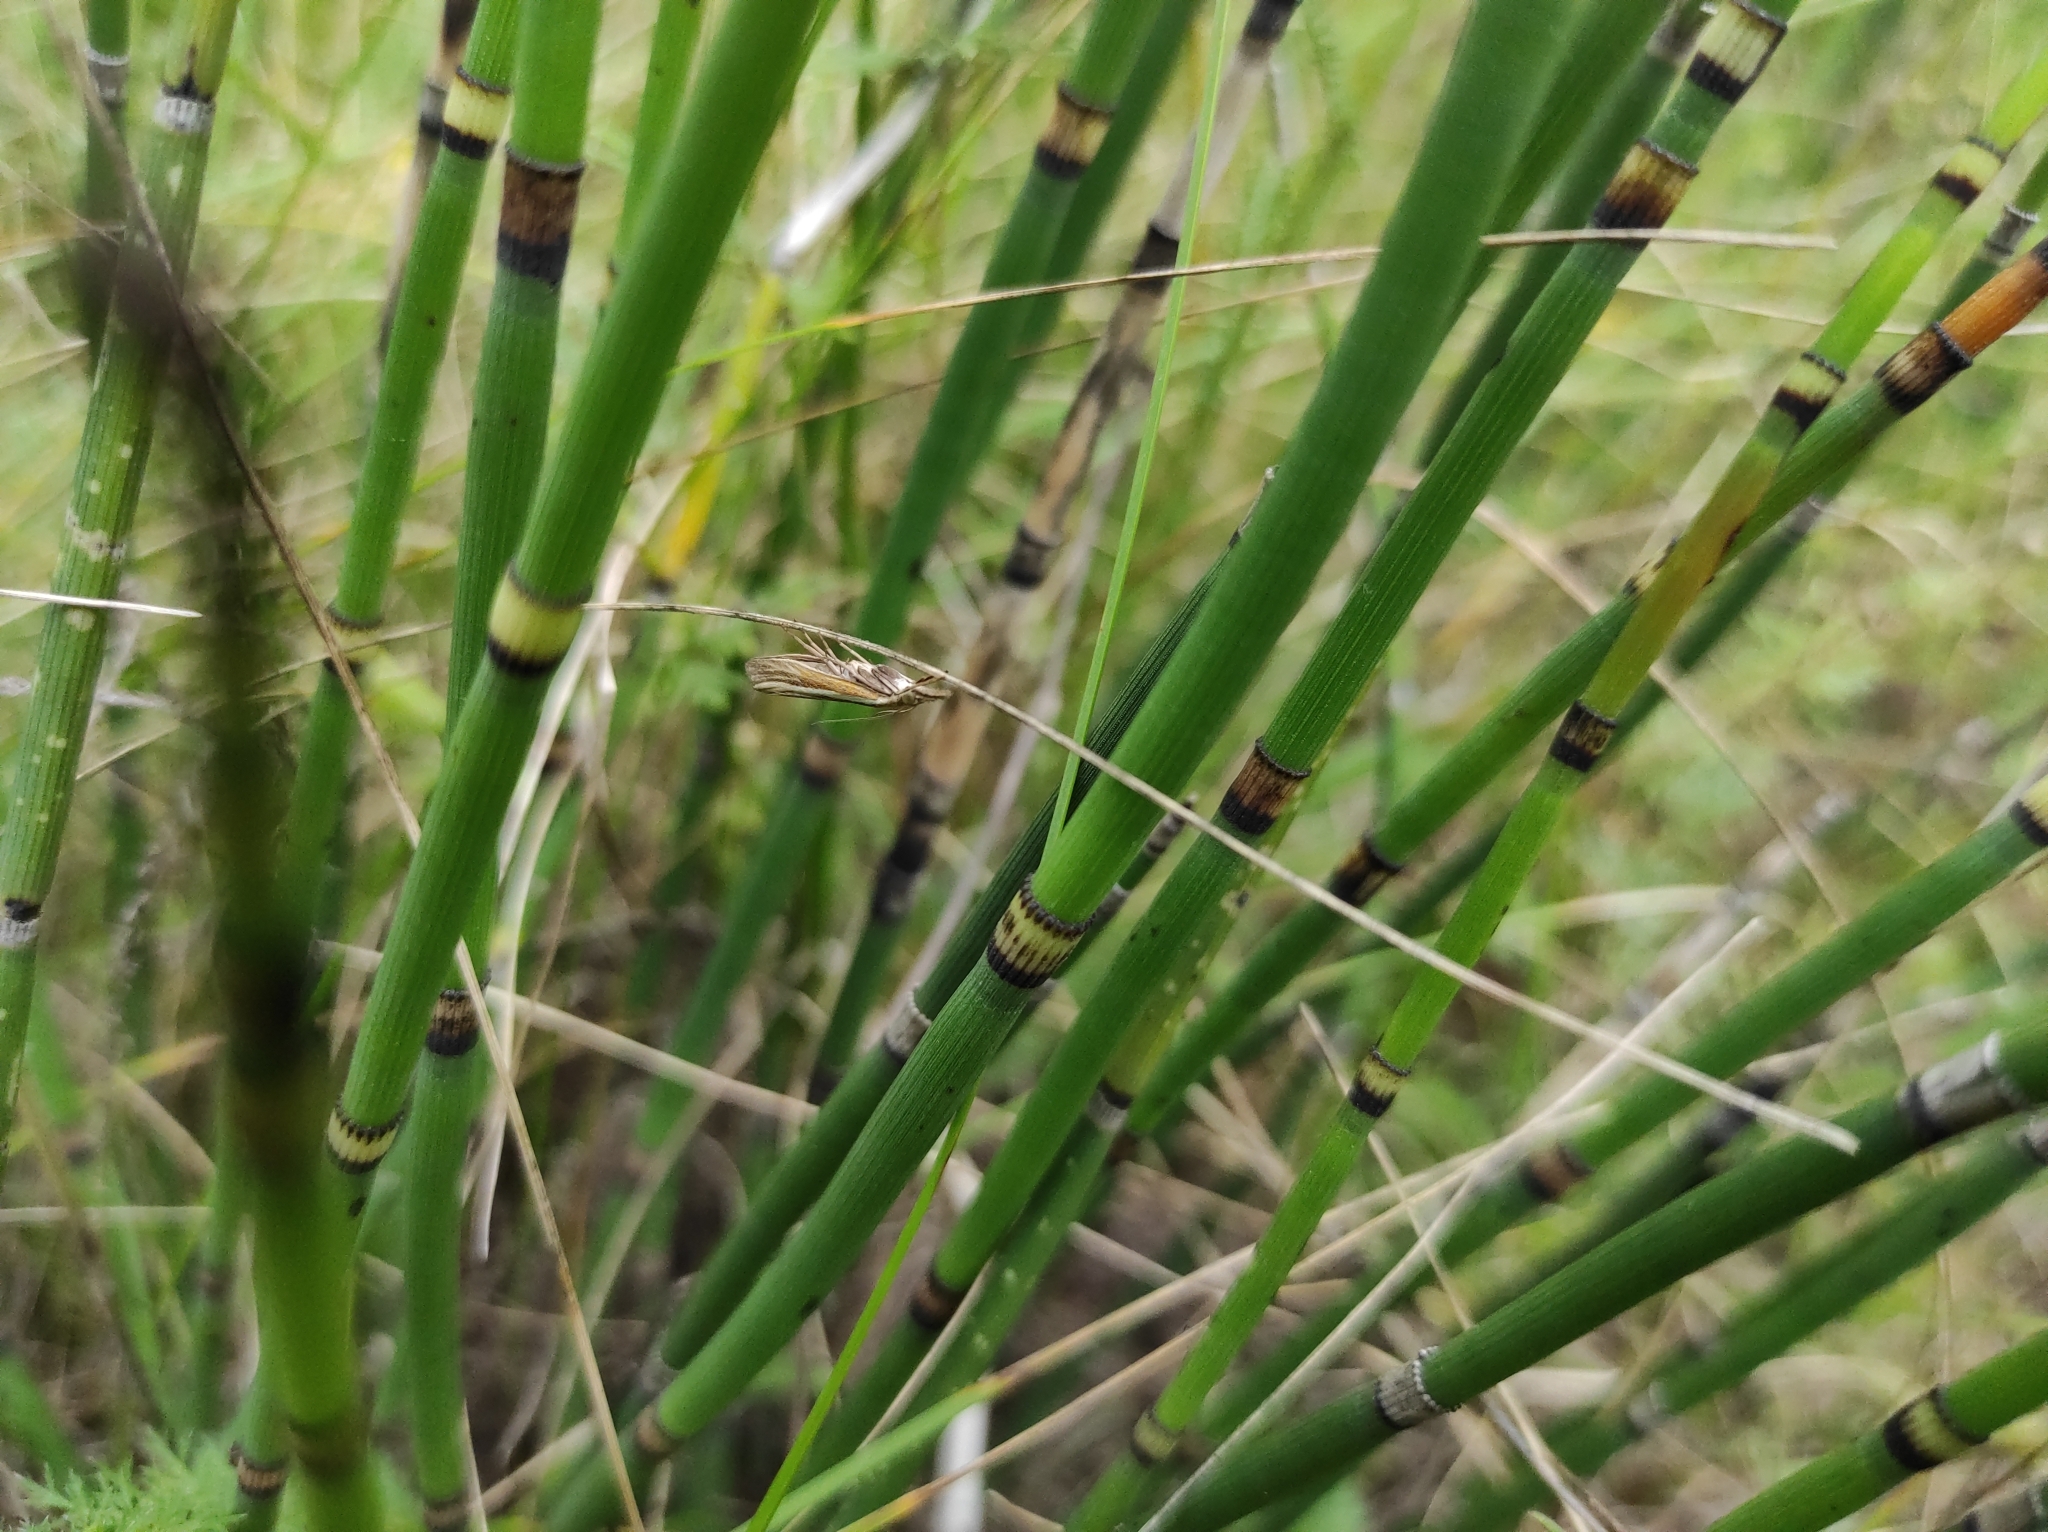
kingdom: Plantae
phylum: Tracheophyta
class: Polypodiopsida
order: Equisetales
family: Equisetaceae
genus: Equisetum
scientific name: Equisetum hyemale
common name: Rough horsetail
